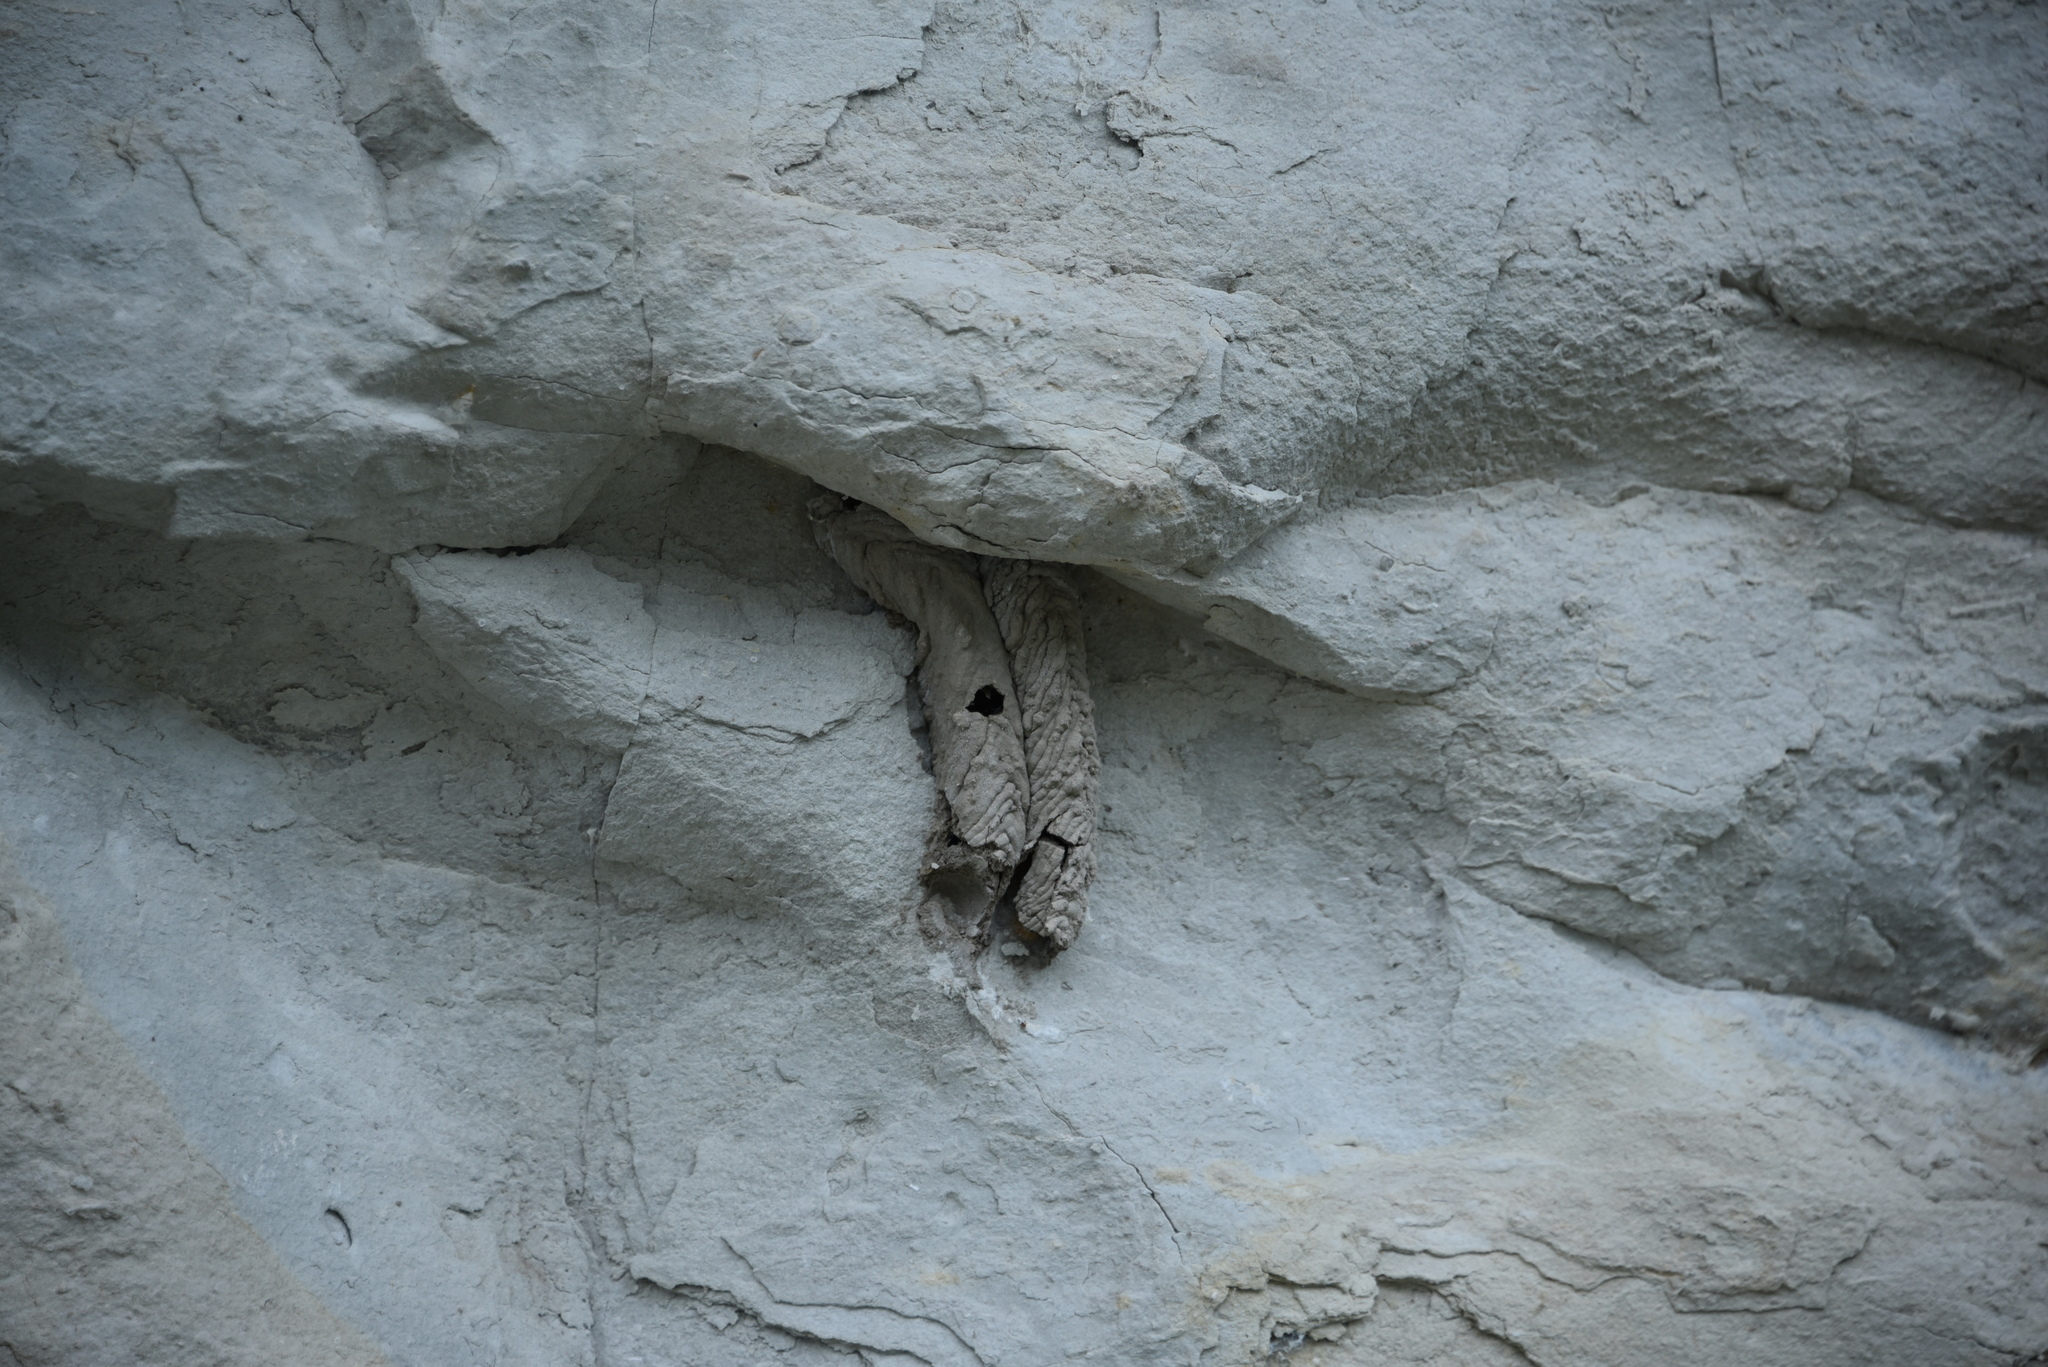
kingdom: Animalia
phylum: Arthropoda
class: Insecta
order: Hymenoptera
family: Crabronidae
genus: Trypoxylon
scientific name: Trypoxylon politum
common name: Organ-pipe mud-dauber wasp
